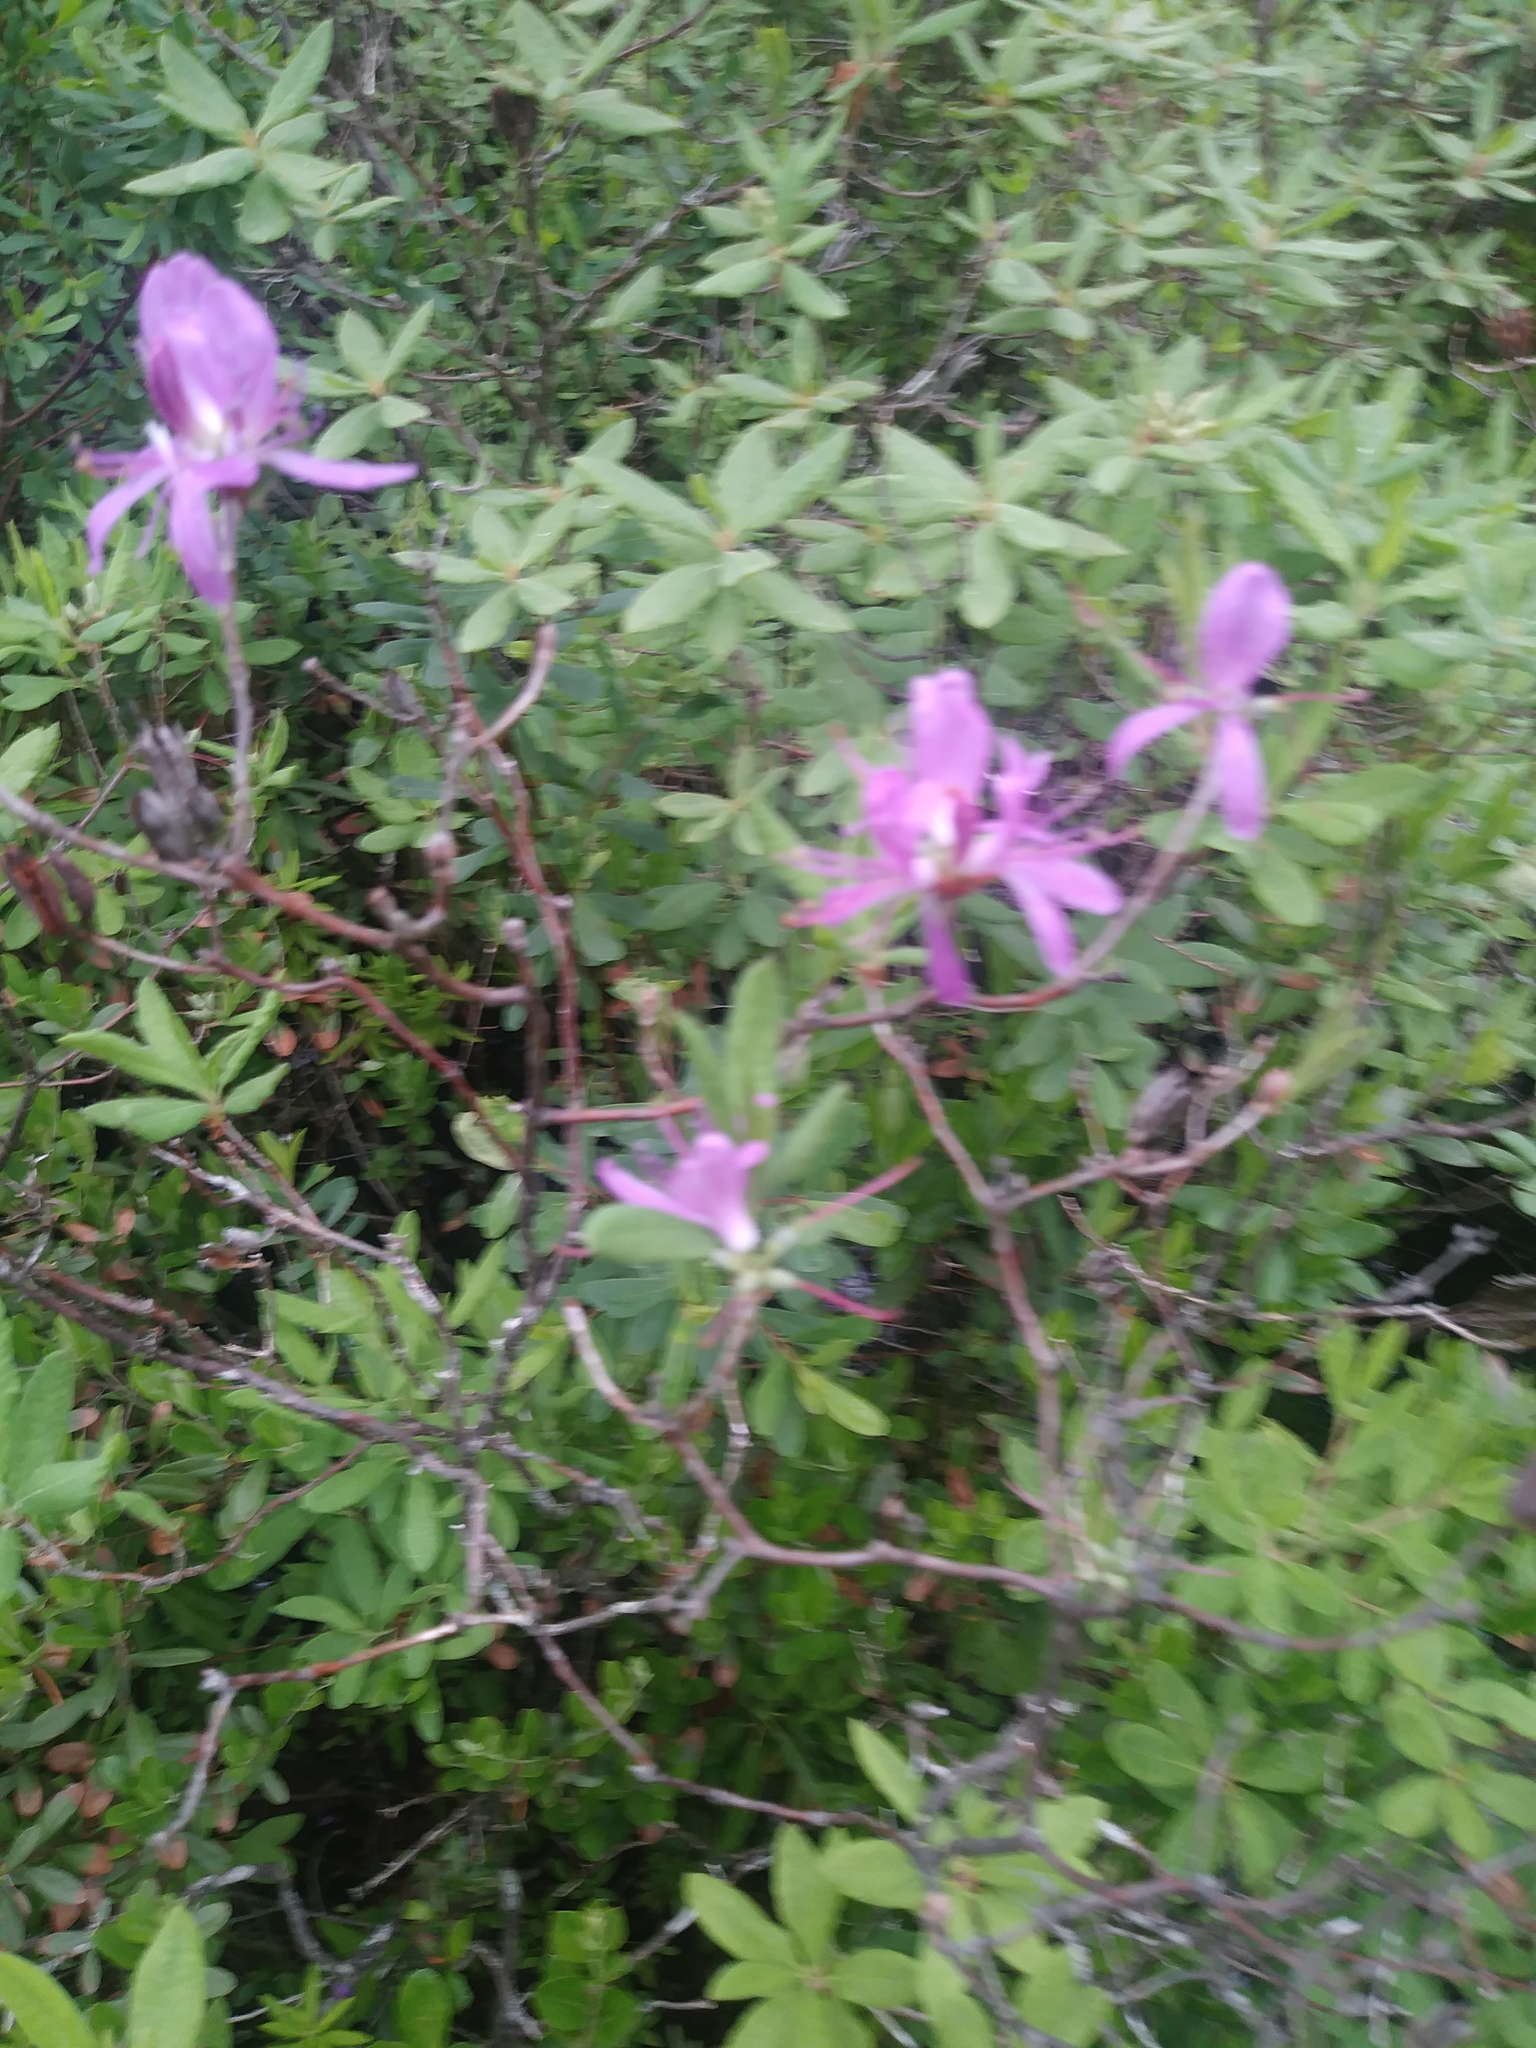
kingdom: Plantae
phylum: Tracheophyta
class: Magnoliopsida
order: Ericales
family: Ericaceae
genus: Rhododendron
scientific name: Rhododendron canadense
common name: Rhodora
